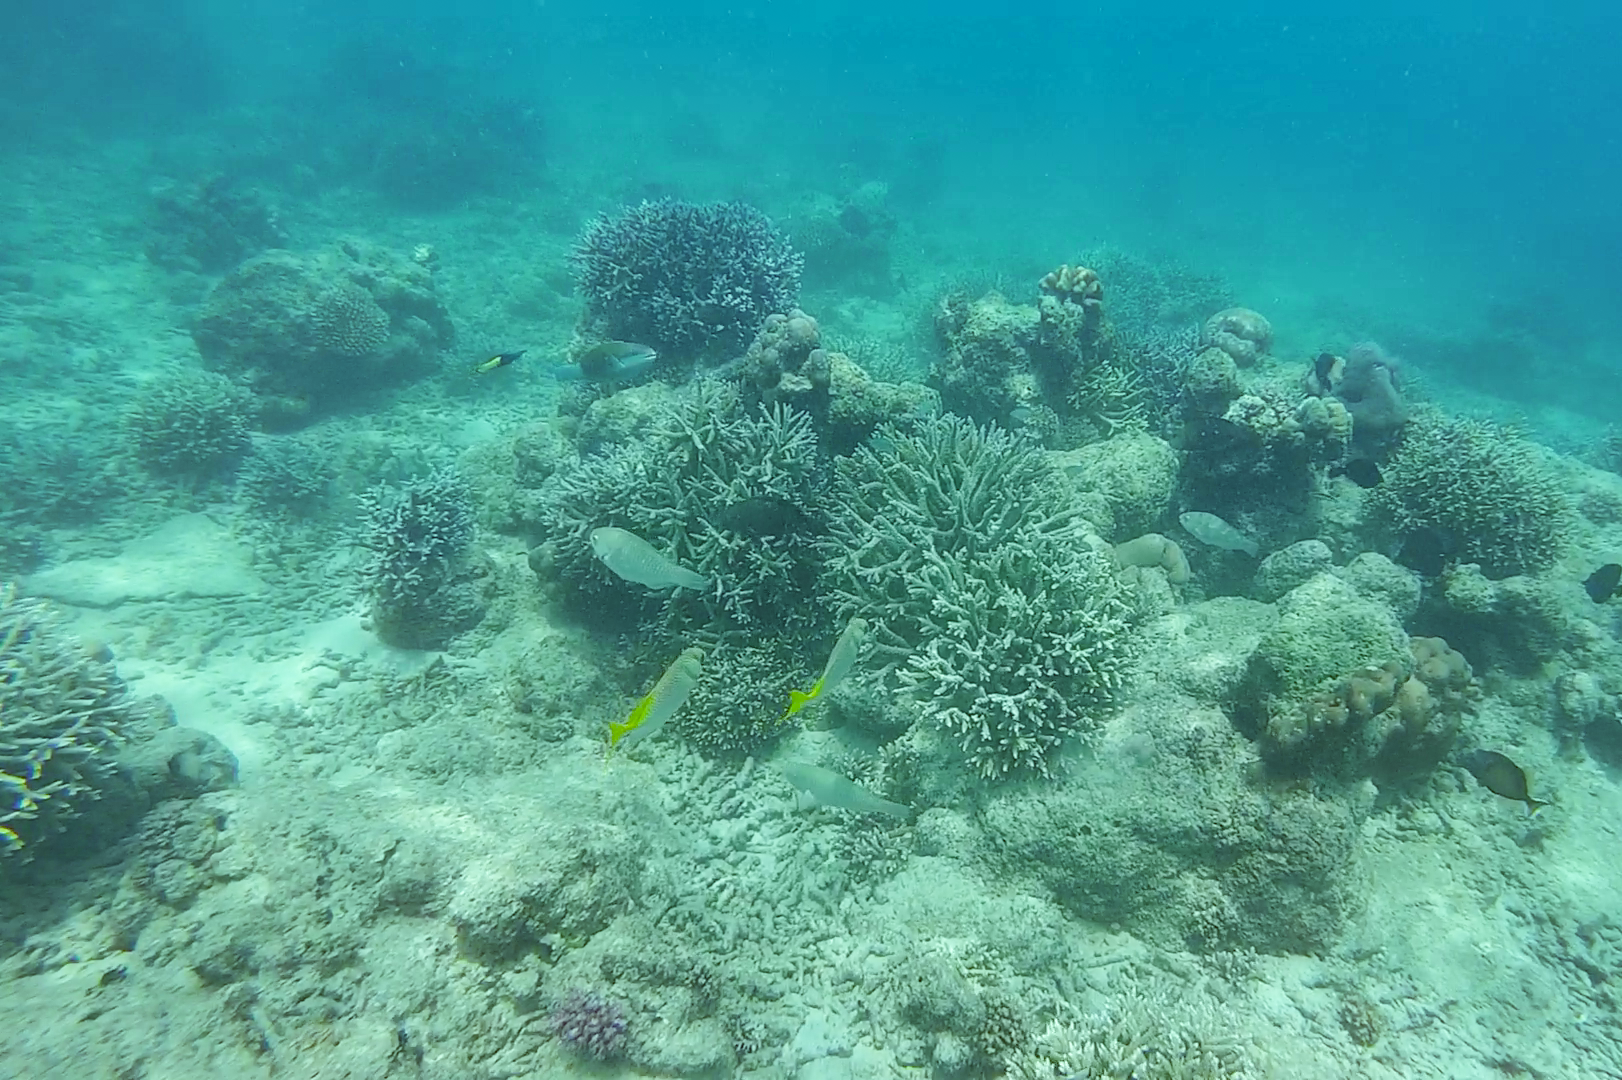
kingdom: Animalia
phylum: Chordata
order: Perciformes
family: Labridae
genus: Labroides
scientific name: Labroides bicolor
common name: Bicolor cleaner wrasse
